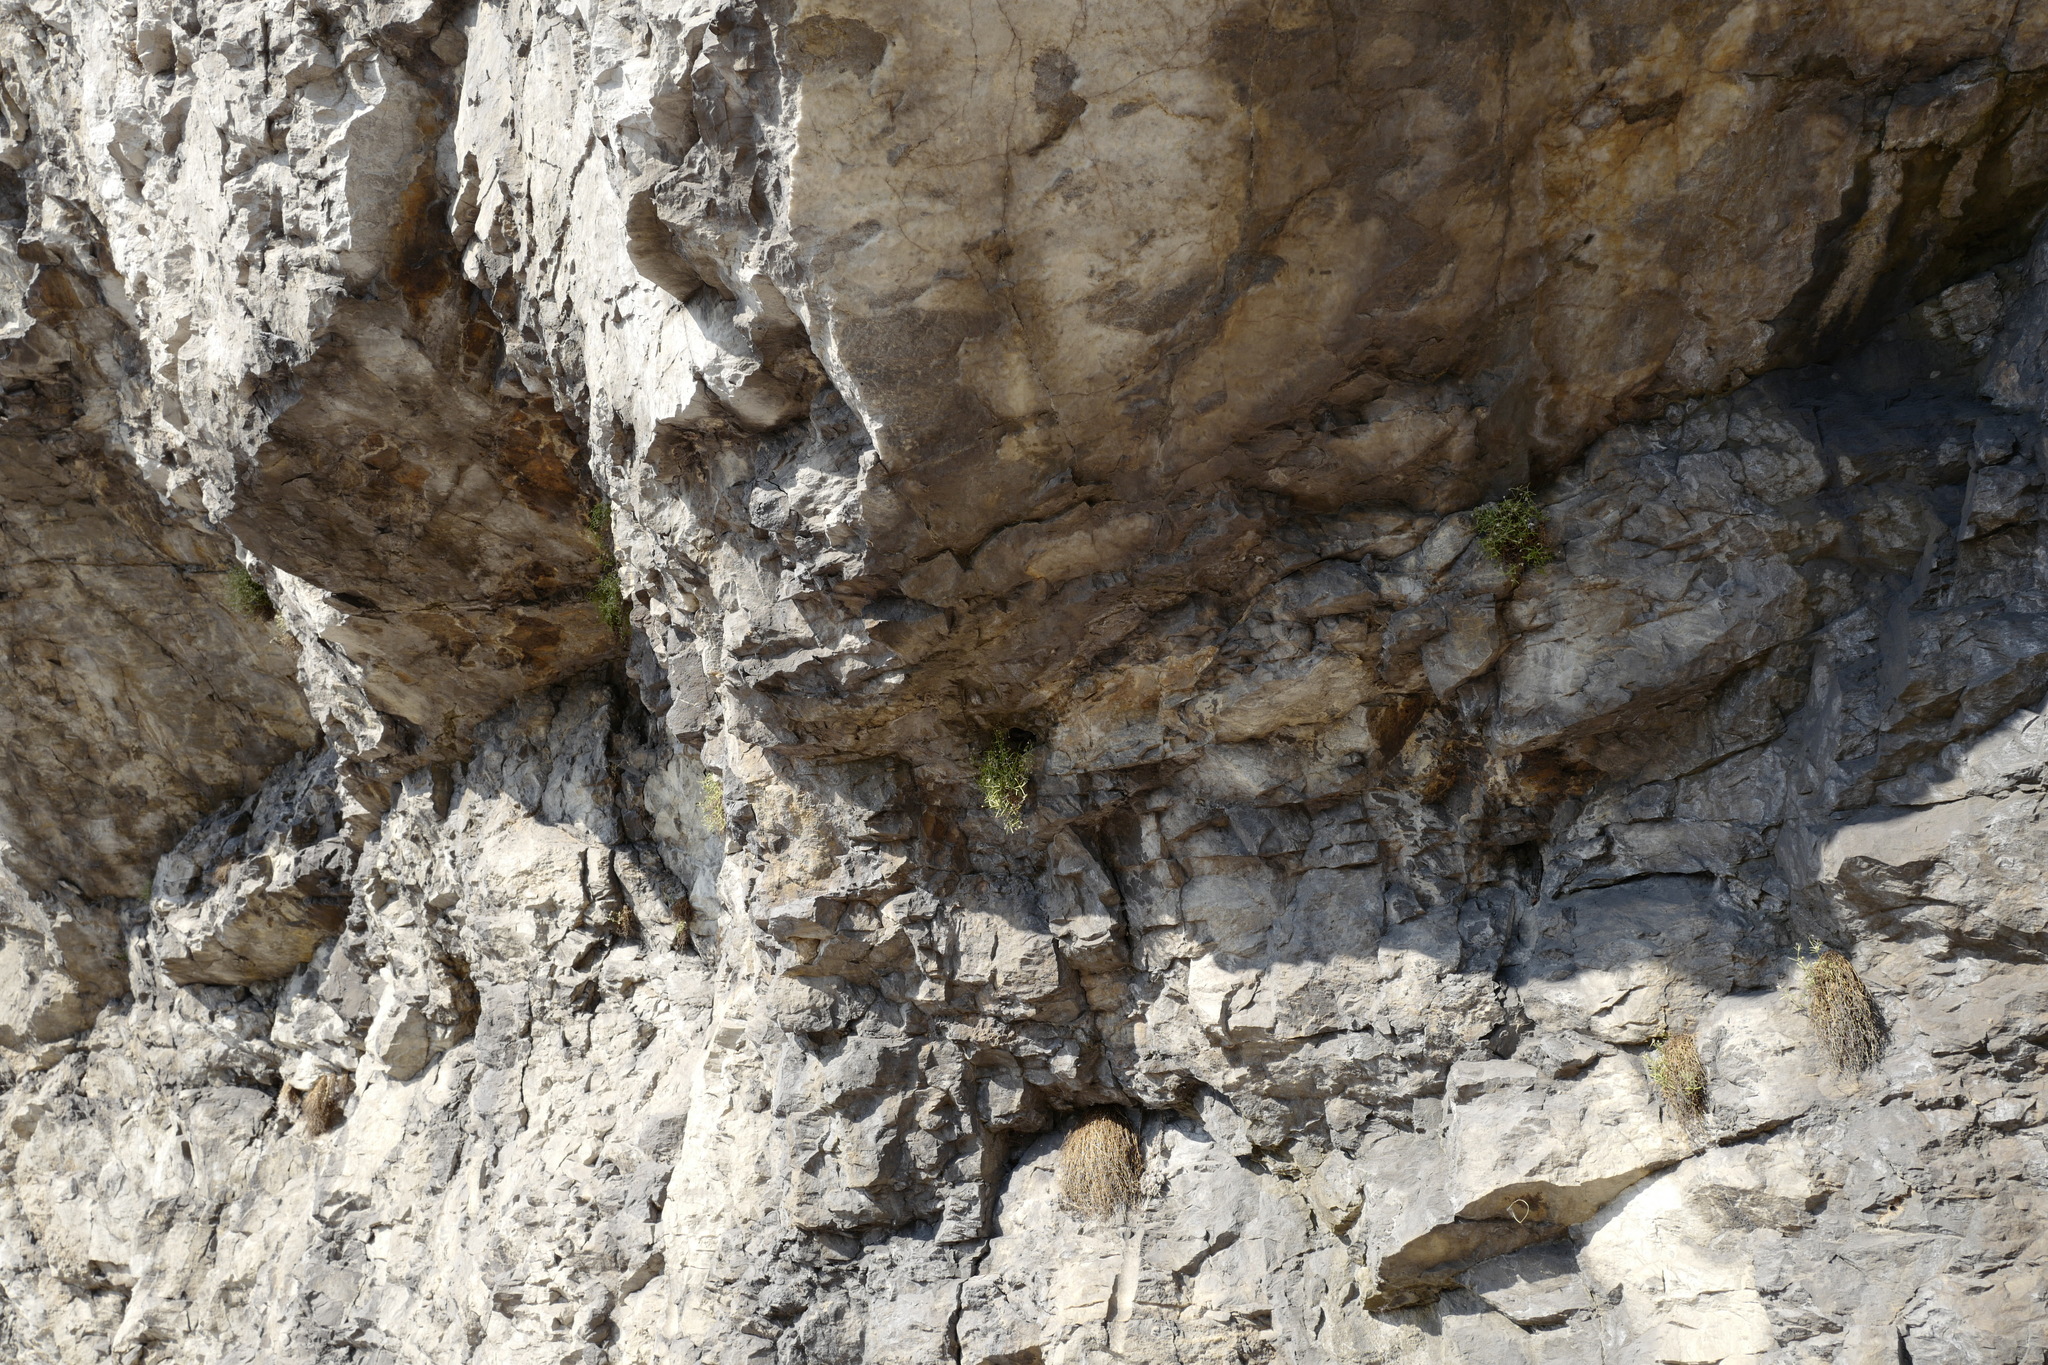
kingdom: Plantae
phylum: Tracheophyta
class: Magnoliopsida
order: Caryophyllales
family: Caryophyllaceae
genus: Moehringia
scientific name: Moehringia bavarica
